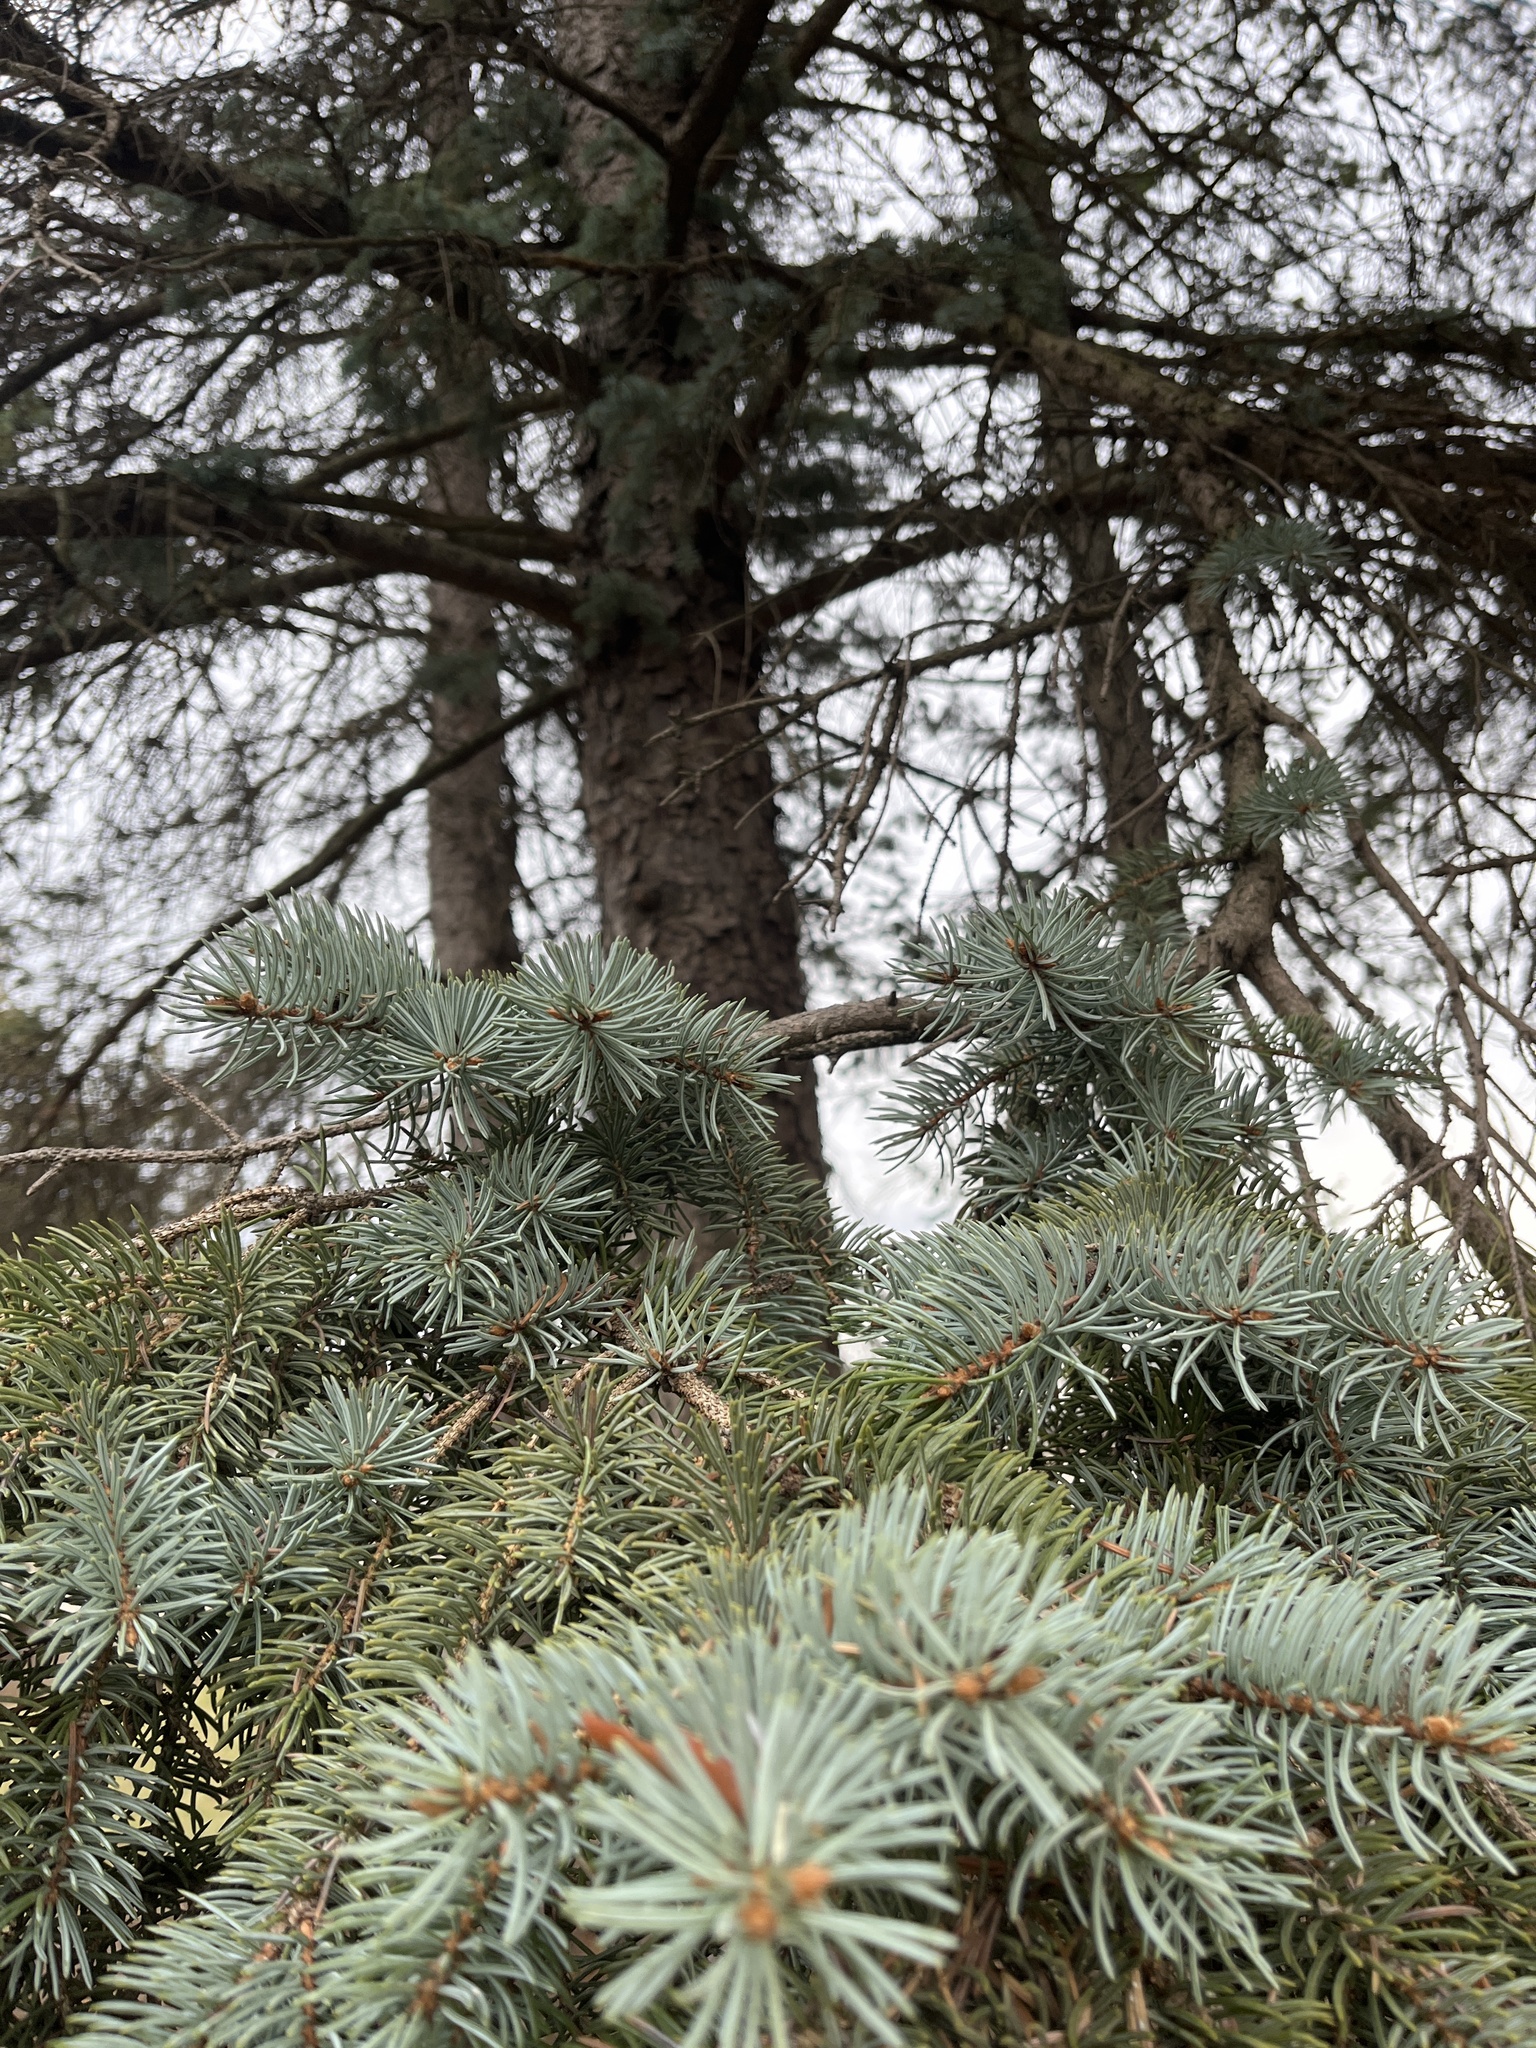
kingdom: Plantae
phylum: Tracheophyta
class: Pinopsida
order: Pinales
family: Pinaceae
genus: Picea
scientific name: Picea pungens
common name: Colorado spruce
